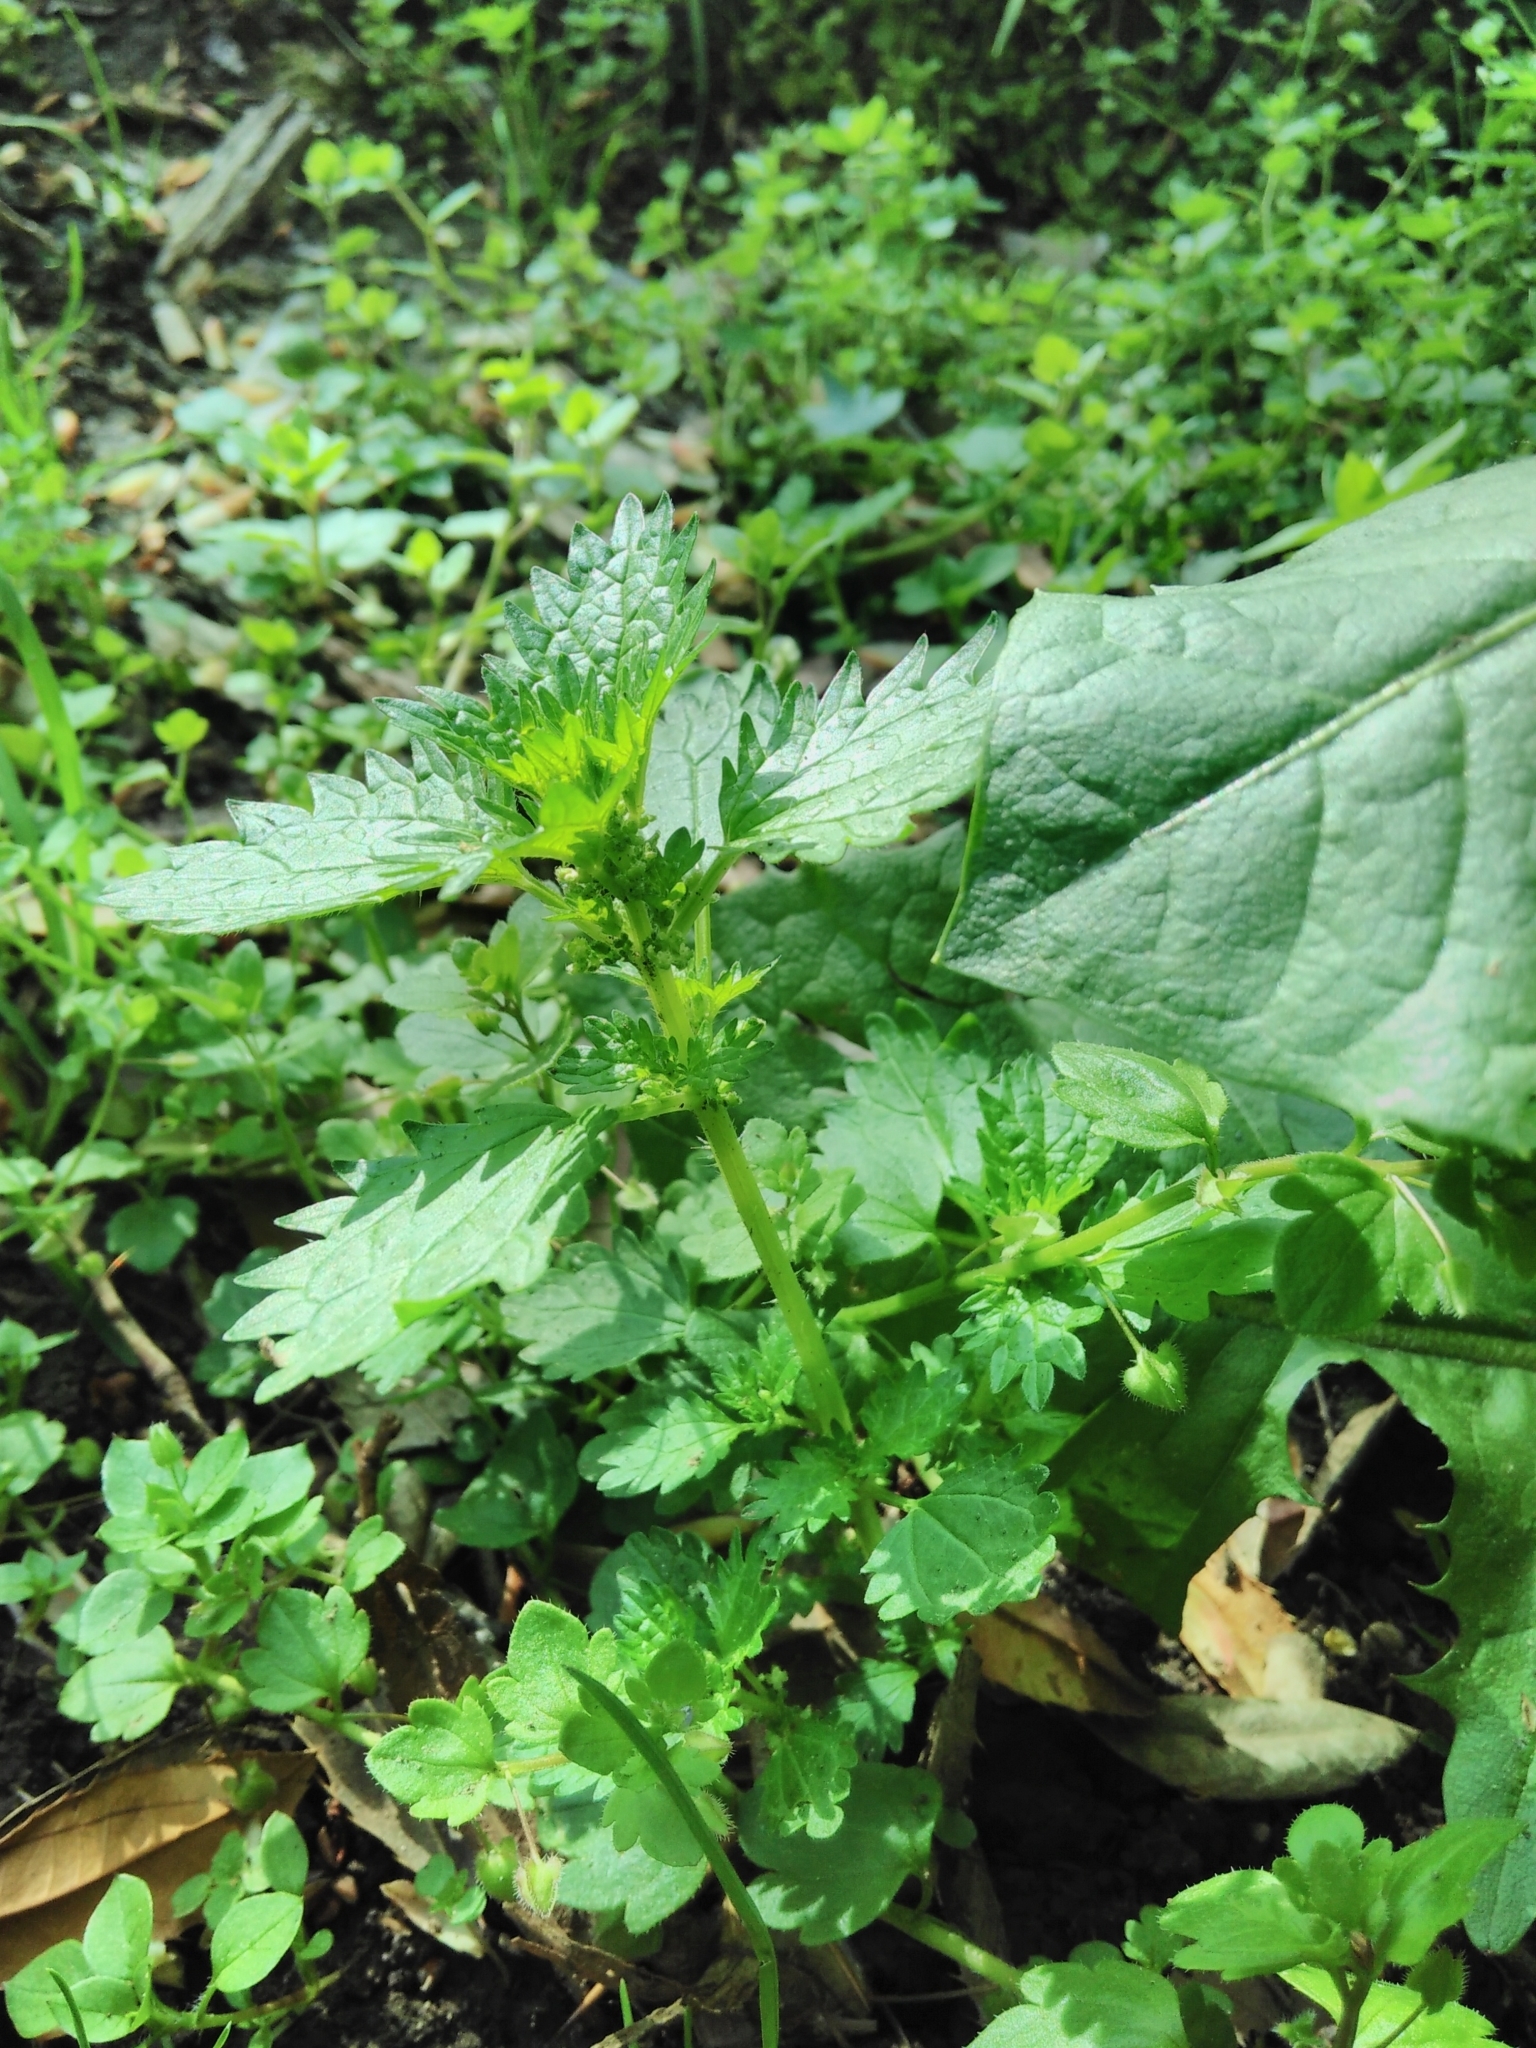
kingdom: Plantae
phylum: Tracheophyta
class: Magnoliopsida
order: Rosales
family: Urticaceae
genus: Urtica
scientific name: Urtica urens
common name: Dwarf nettle
